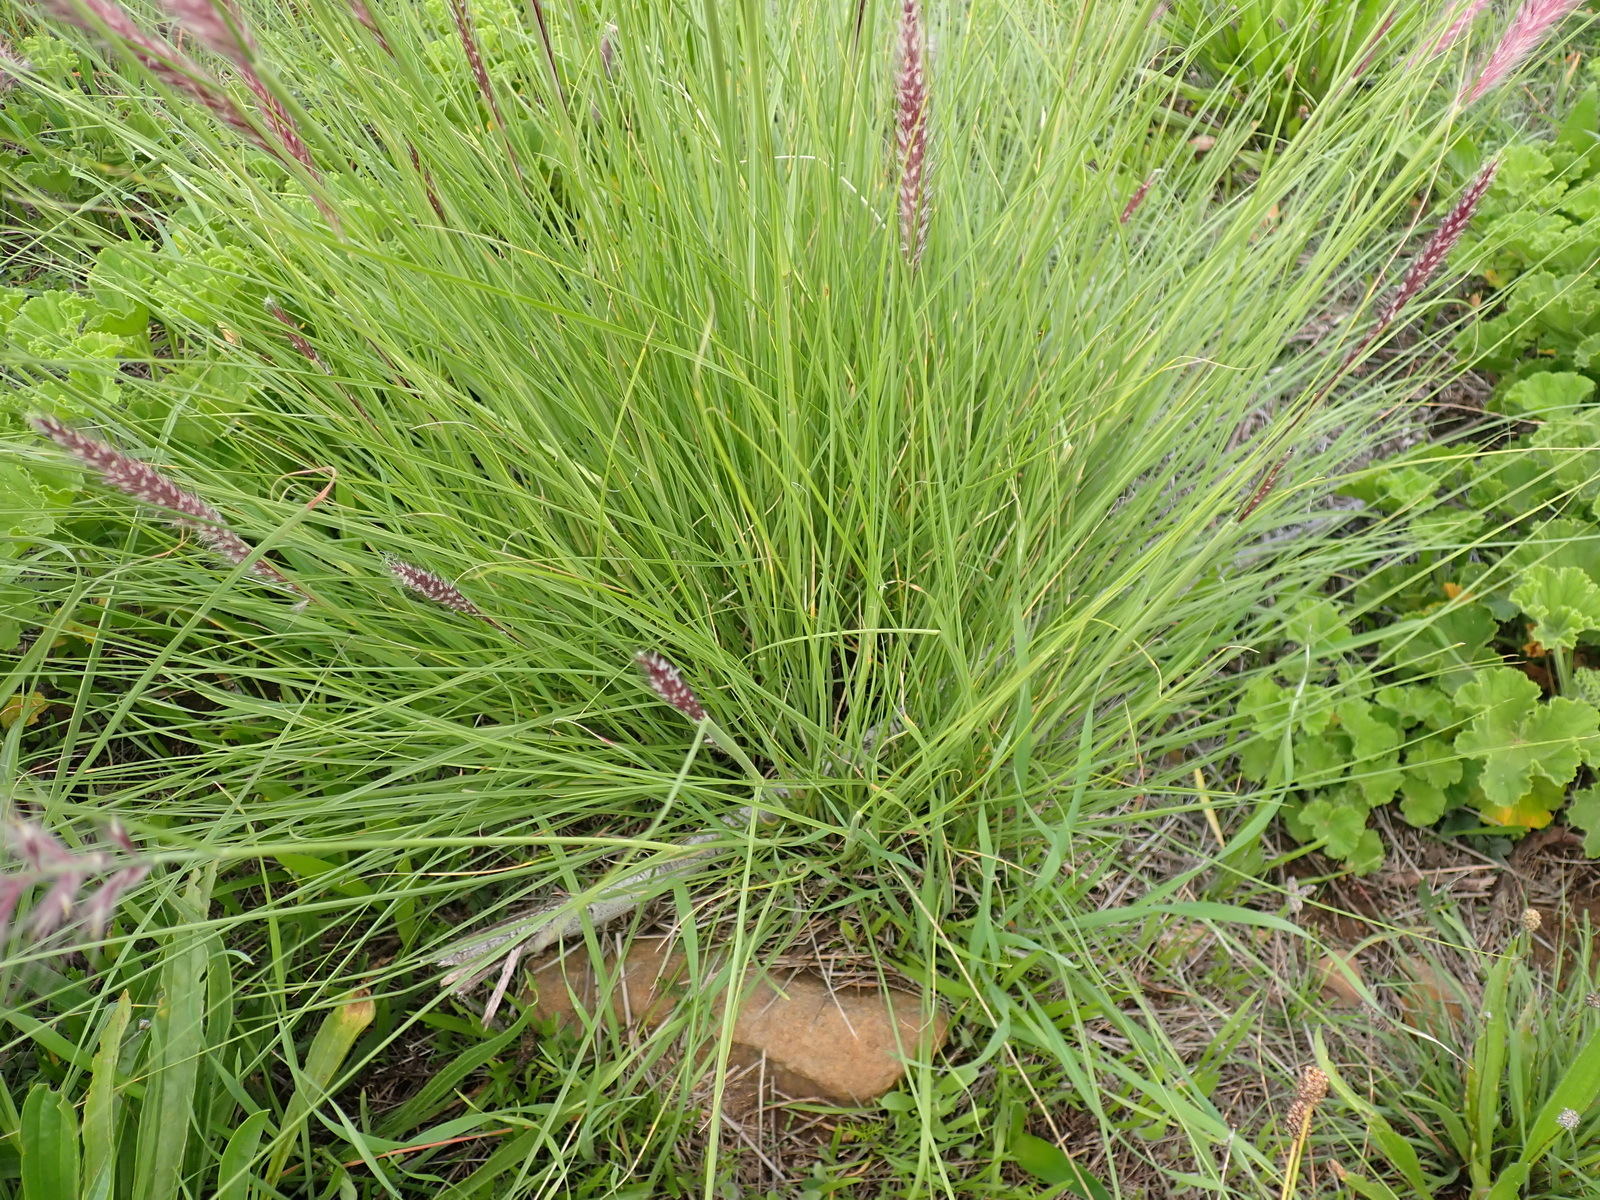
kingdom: Plantae
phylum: Tracheophyta
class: Liliopsida
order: Poales
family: Poaceae
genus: Cenchrus
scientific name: Cenchrus setaceus
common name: Crimson fountaingrass
